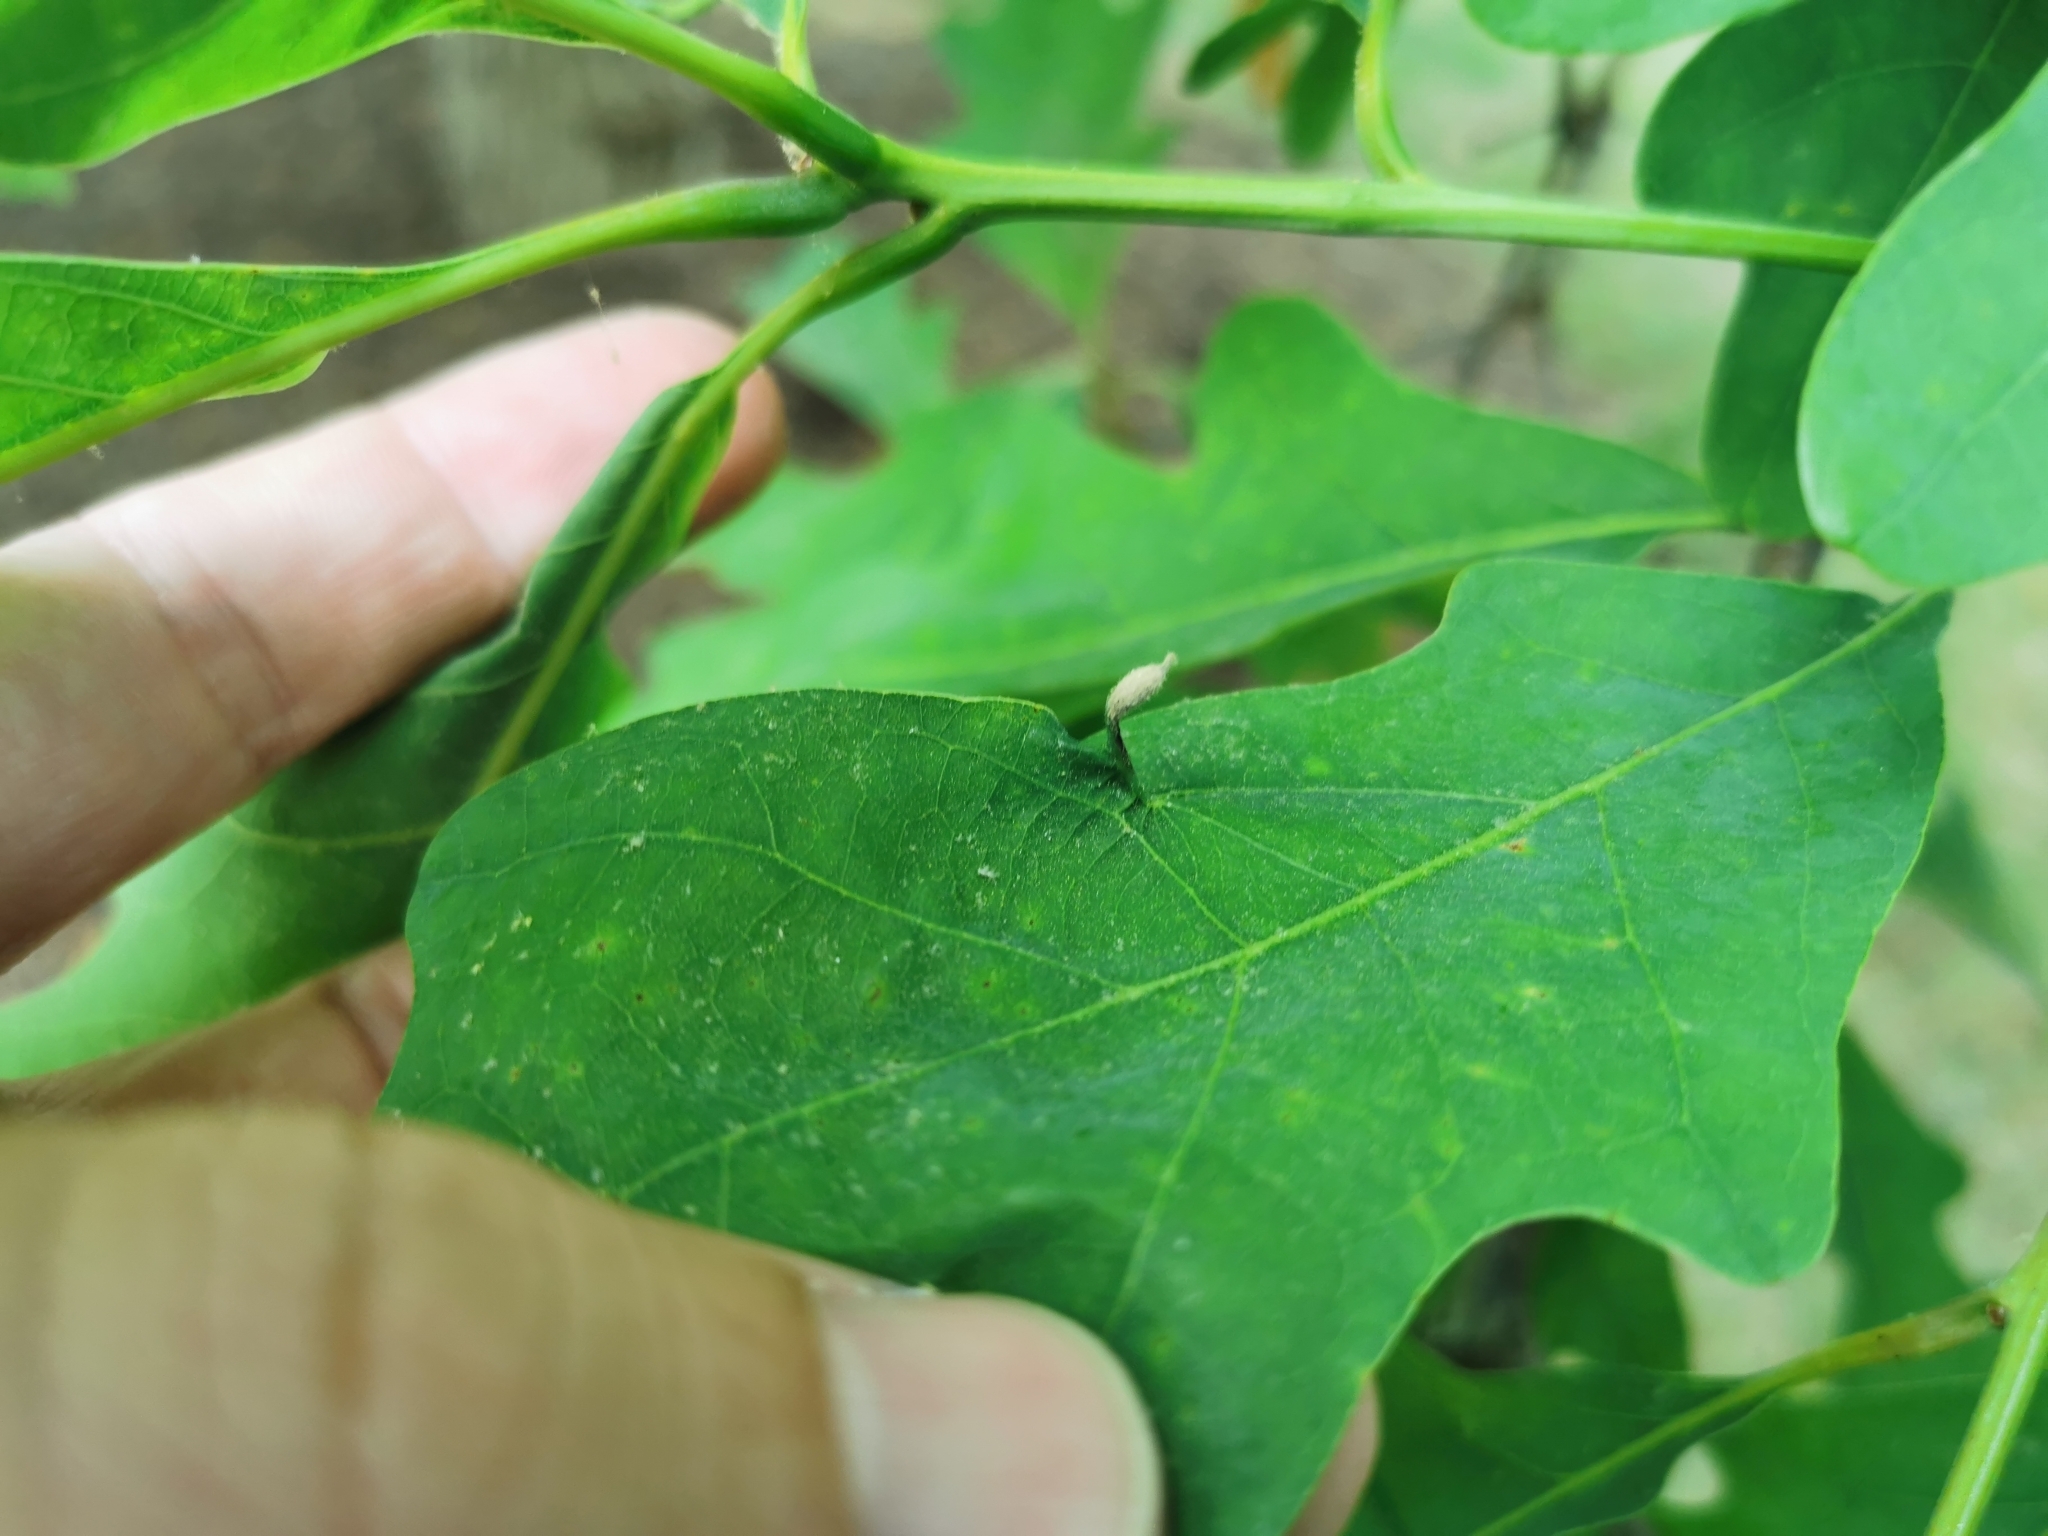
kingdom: Animalia
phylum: Arthropoda
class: Insecta
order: Hymenoptera
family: Cynipidae
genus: Andricus
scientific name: Andricus
